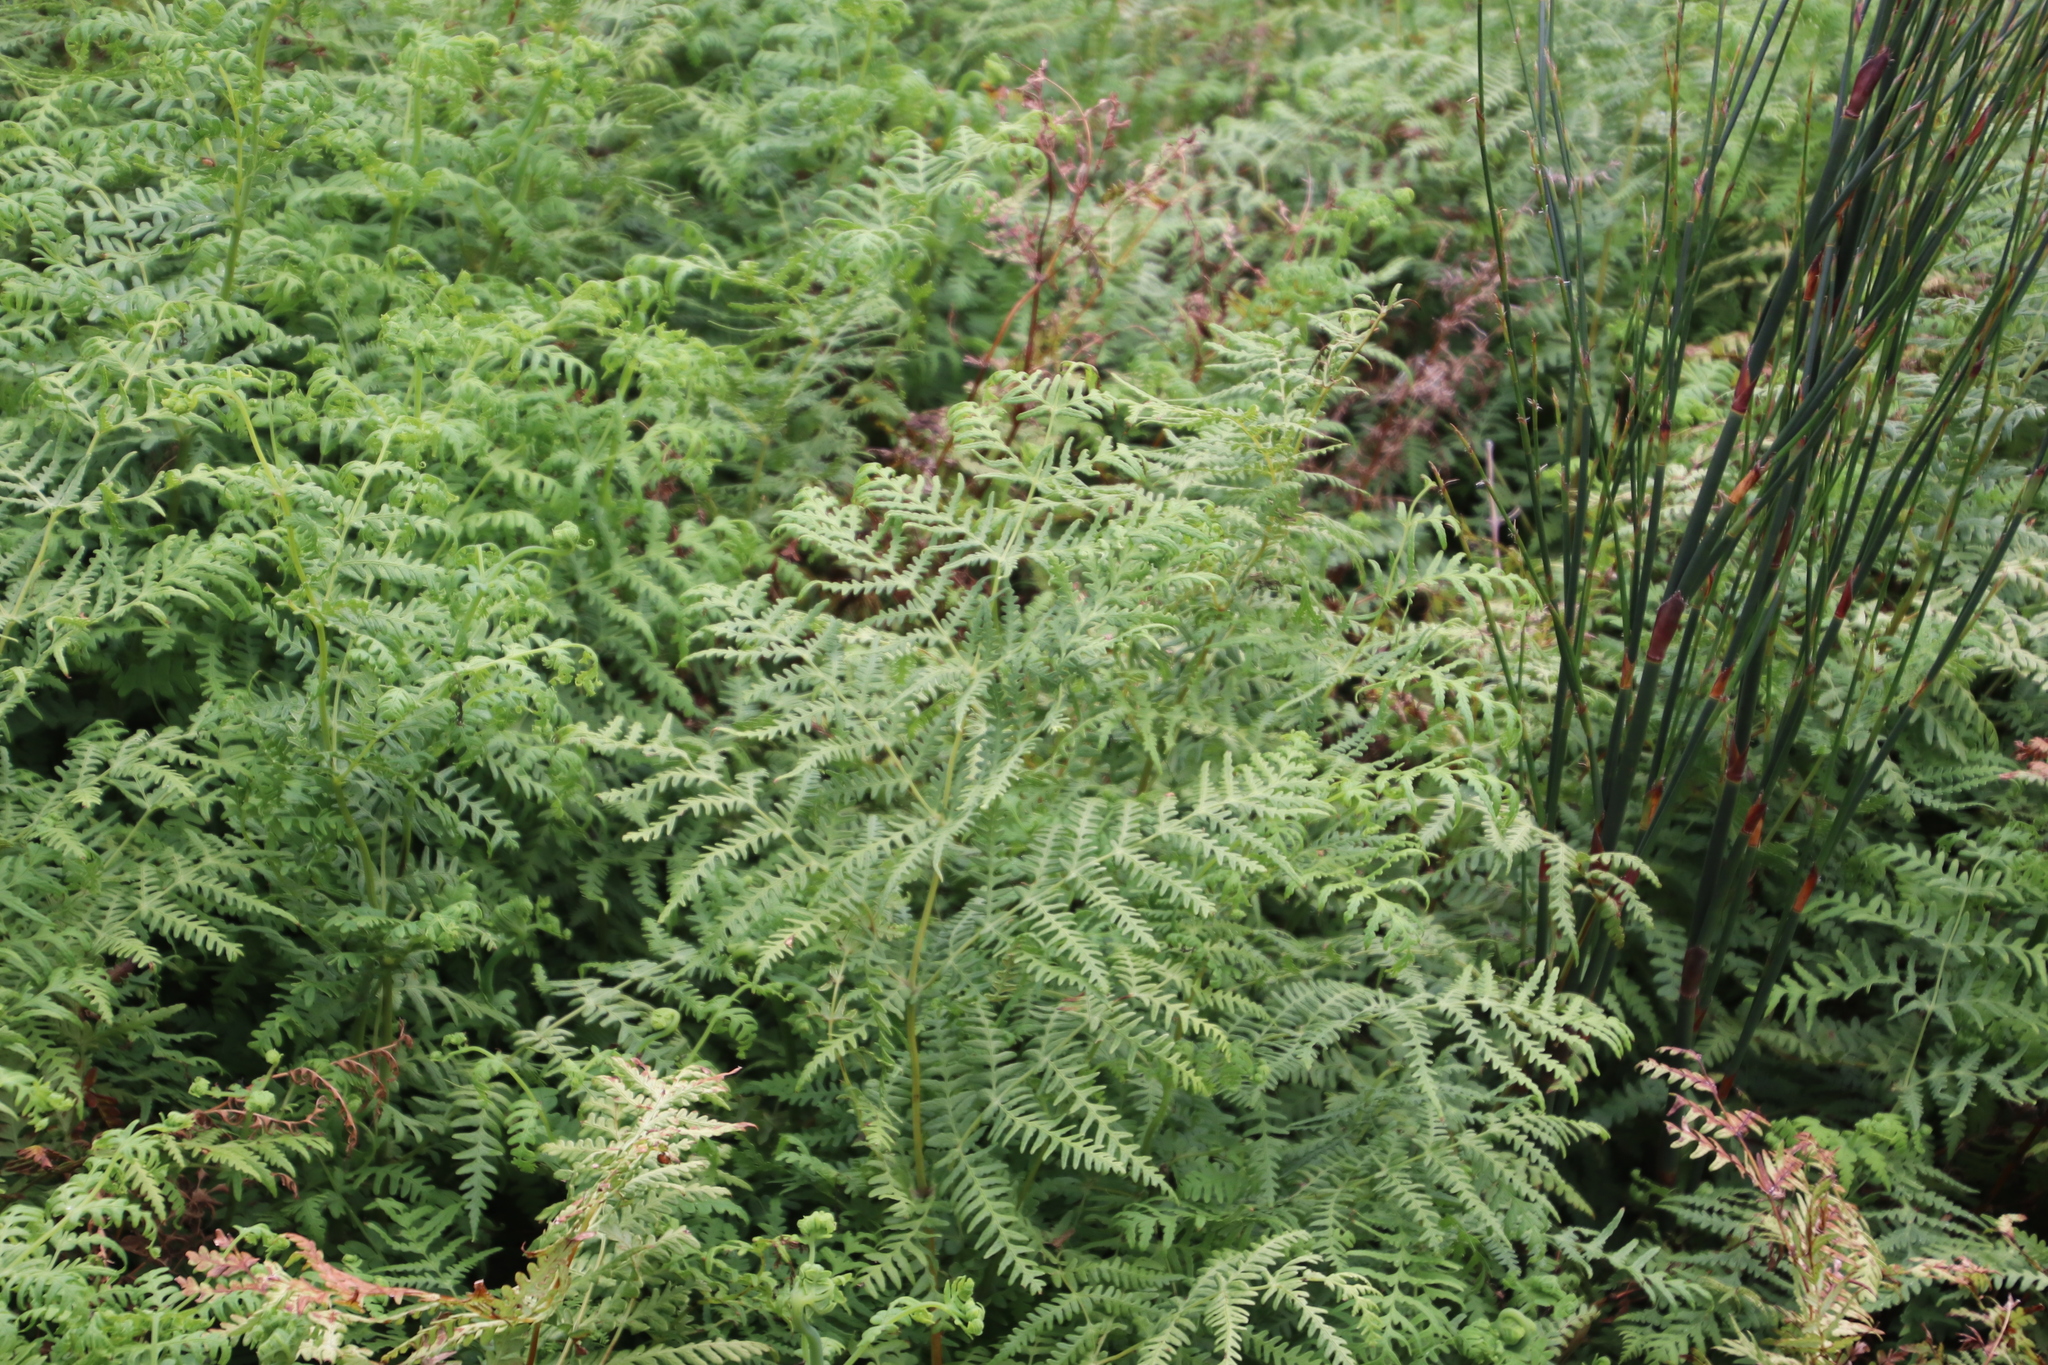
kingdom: Plantae
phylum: Tracheophyta
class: Polypodiopsida
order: Polypodiales
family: Dennstaedtiaceae
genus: Histiopteris
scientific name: Histiopteris incisa
